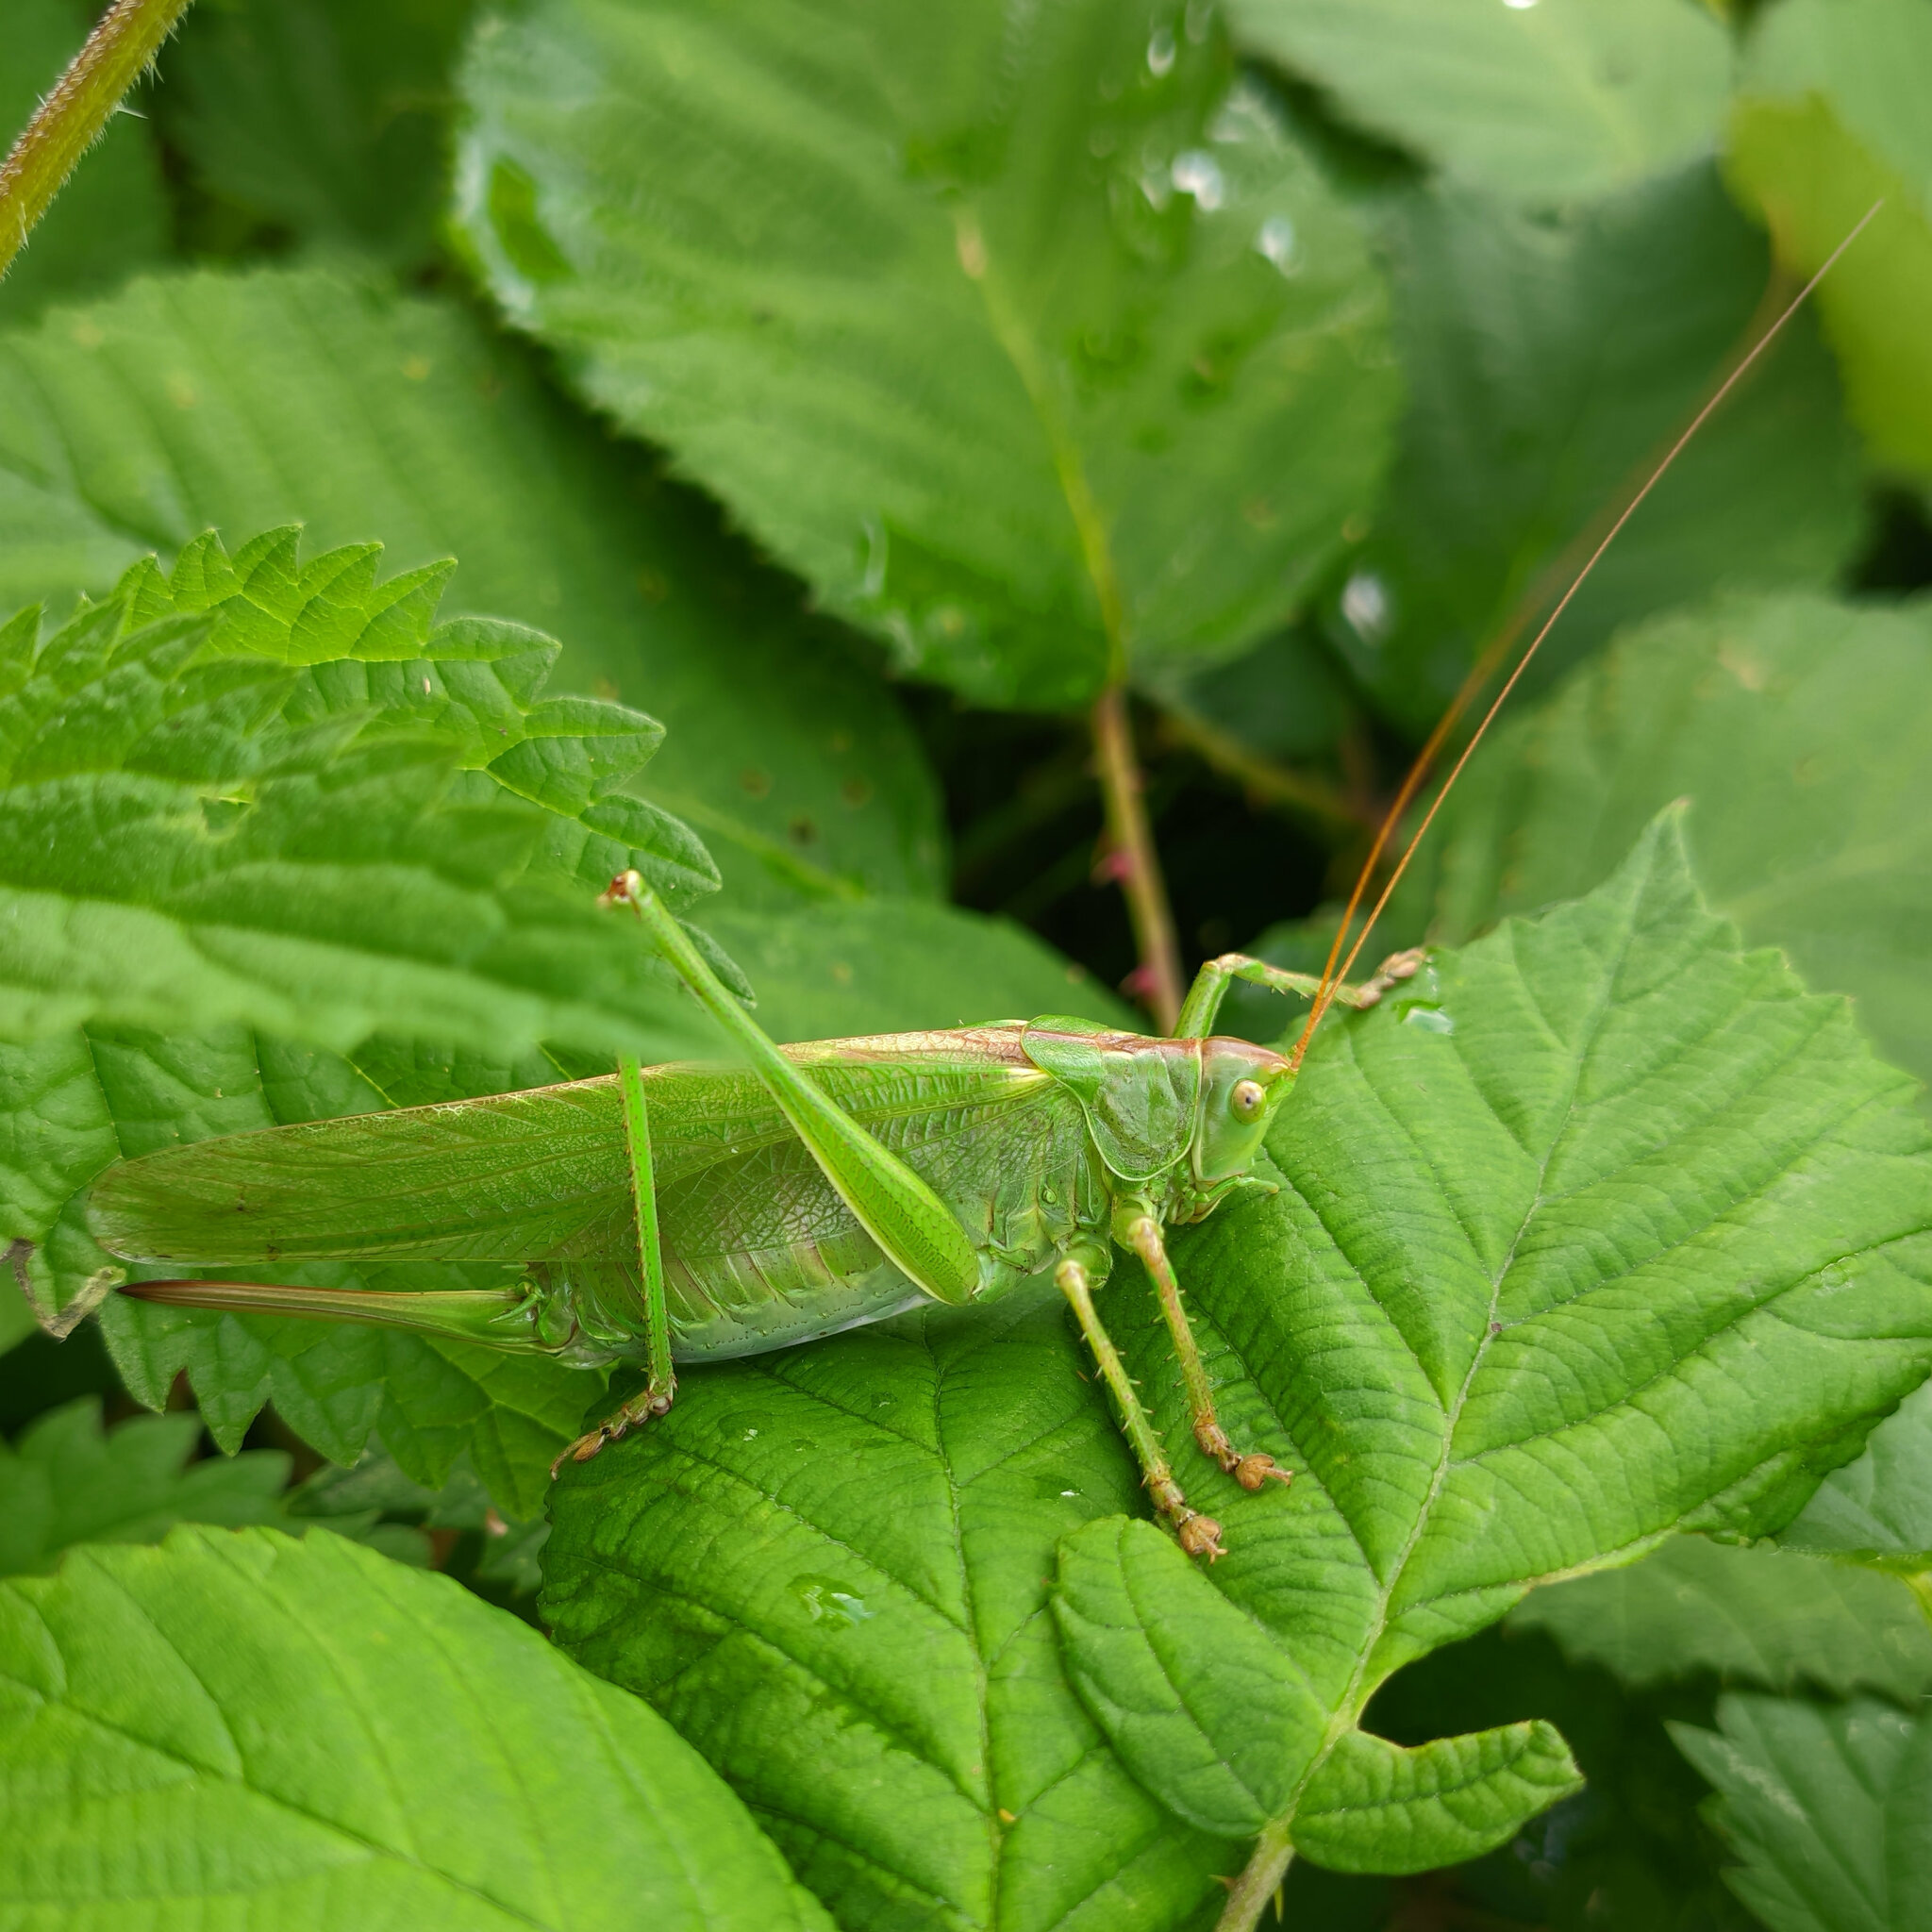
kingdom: Animalia
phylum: Arthropoda
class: Insecta
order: Orthoptera
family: Tettigoniidae
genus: Tettigonia
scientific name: Tettigonia viridissima
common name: Great green bush-cricket
